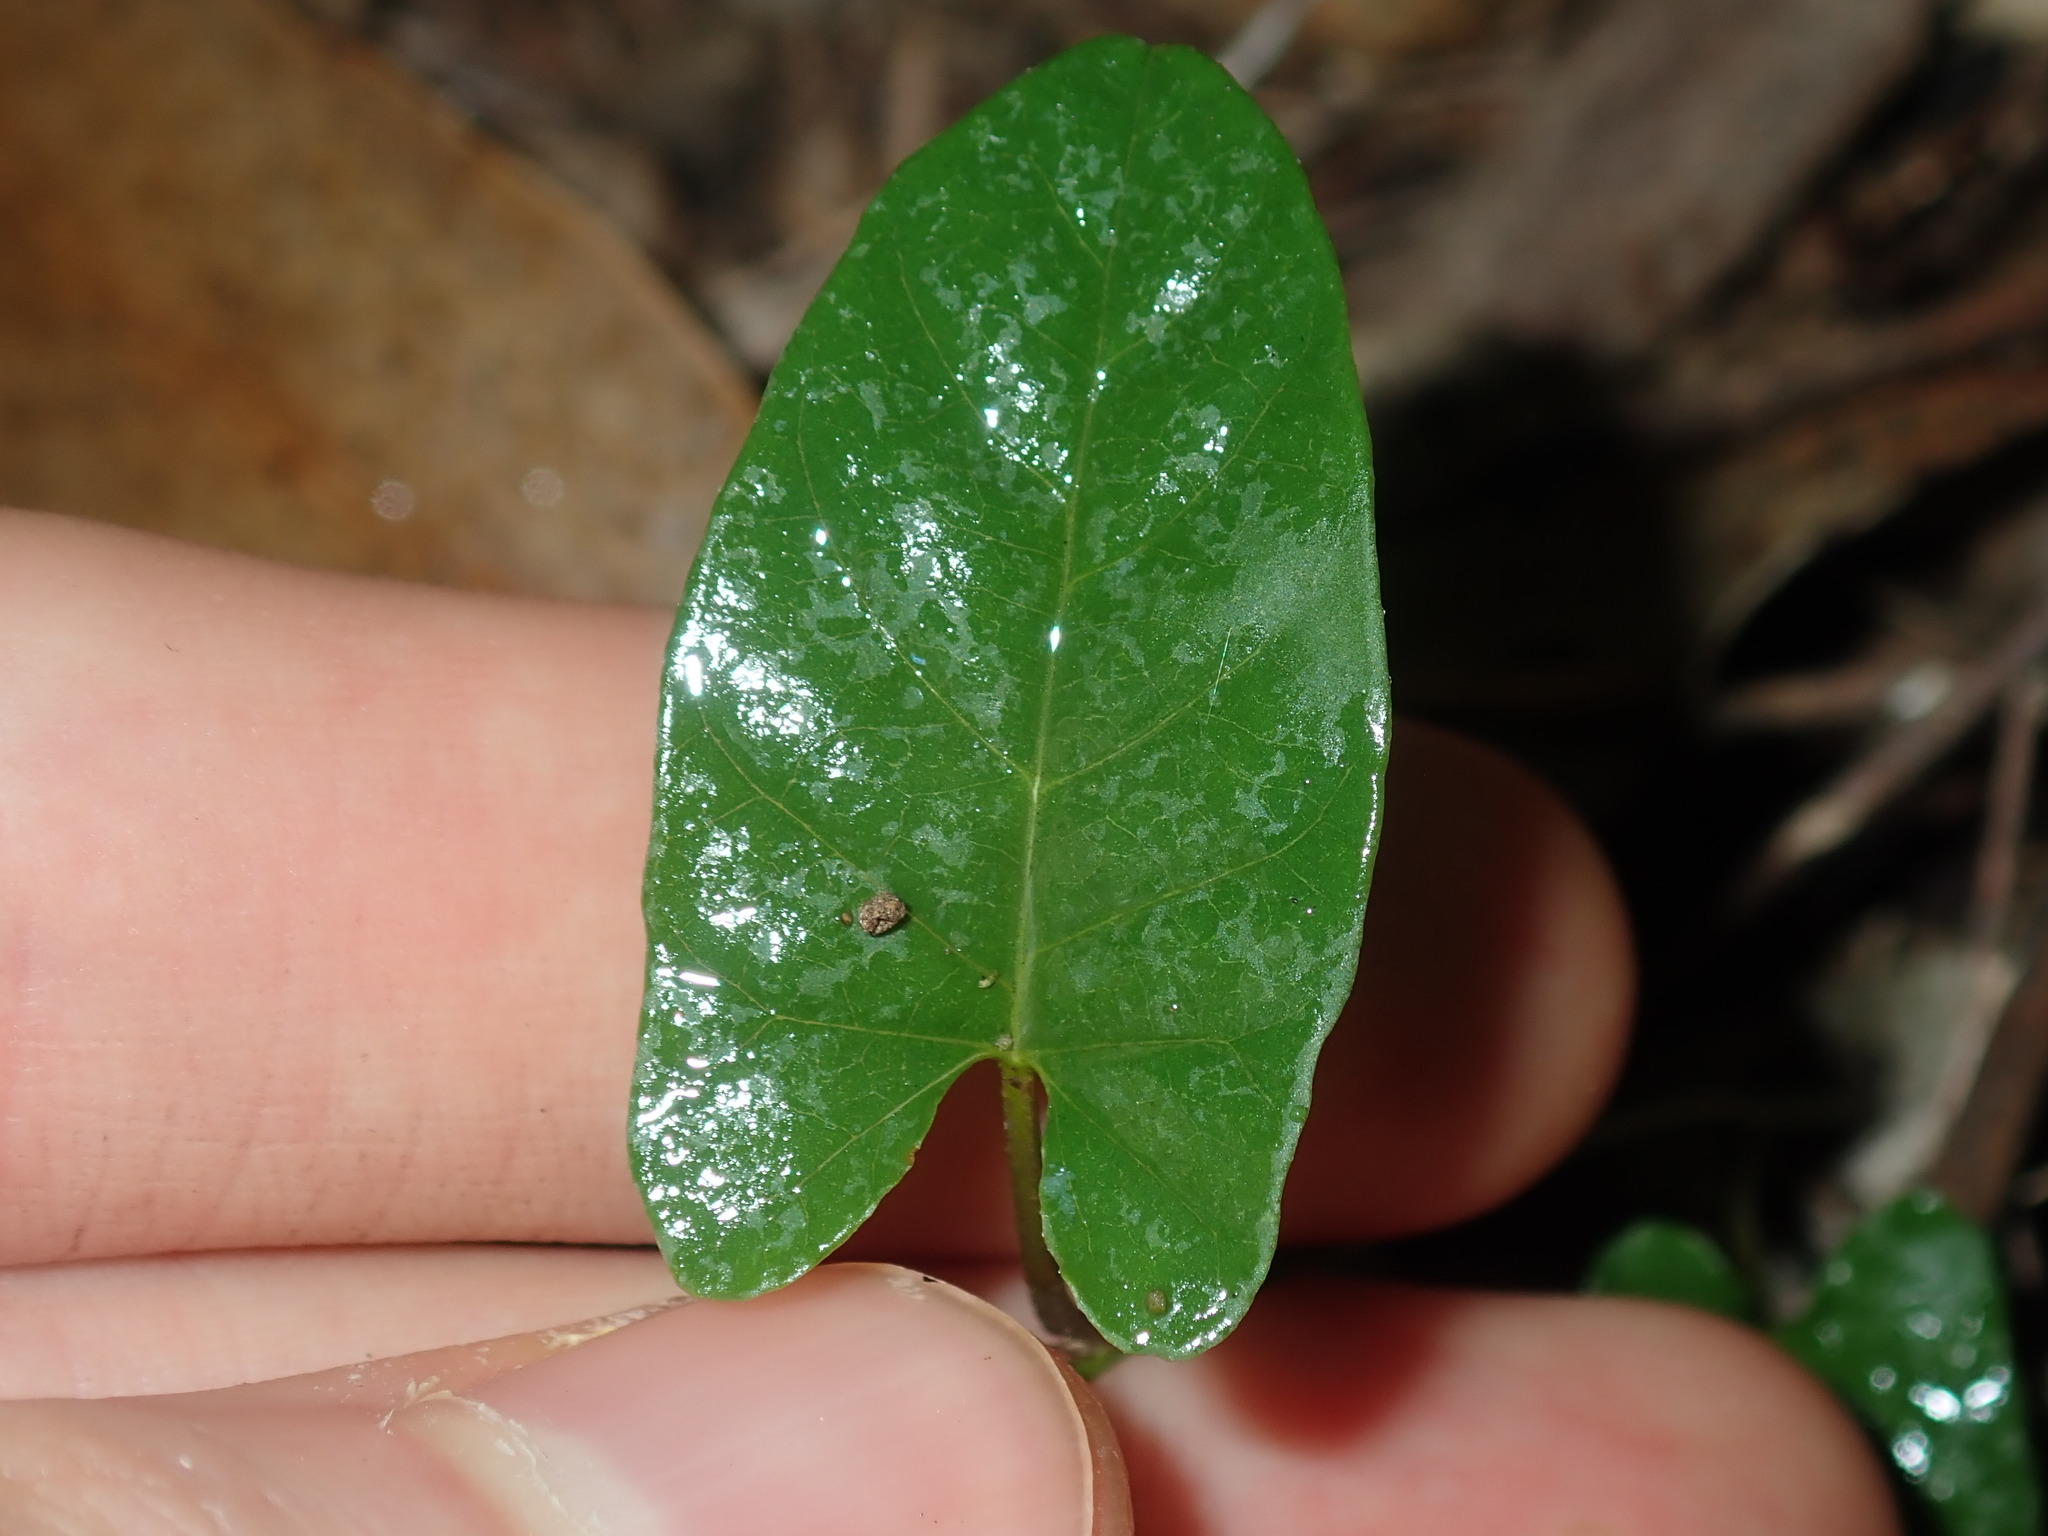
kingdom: Plantae
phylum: Tracheophyta
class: Magnoliopsida
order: Solanales
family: Convolvulaceae
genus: Polymeria
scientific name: Polymeria calycina
